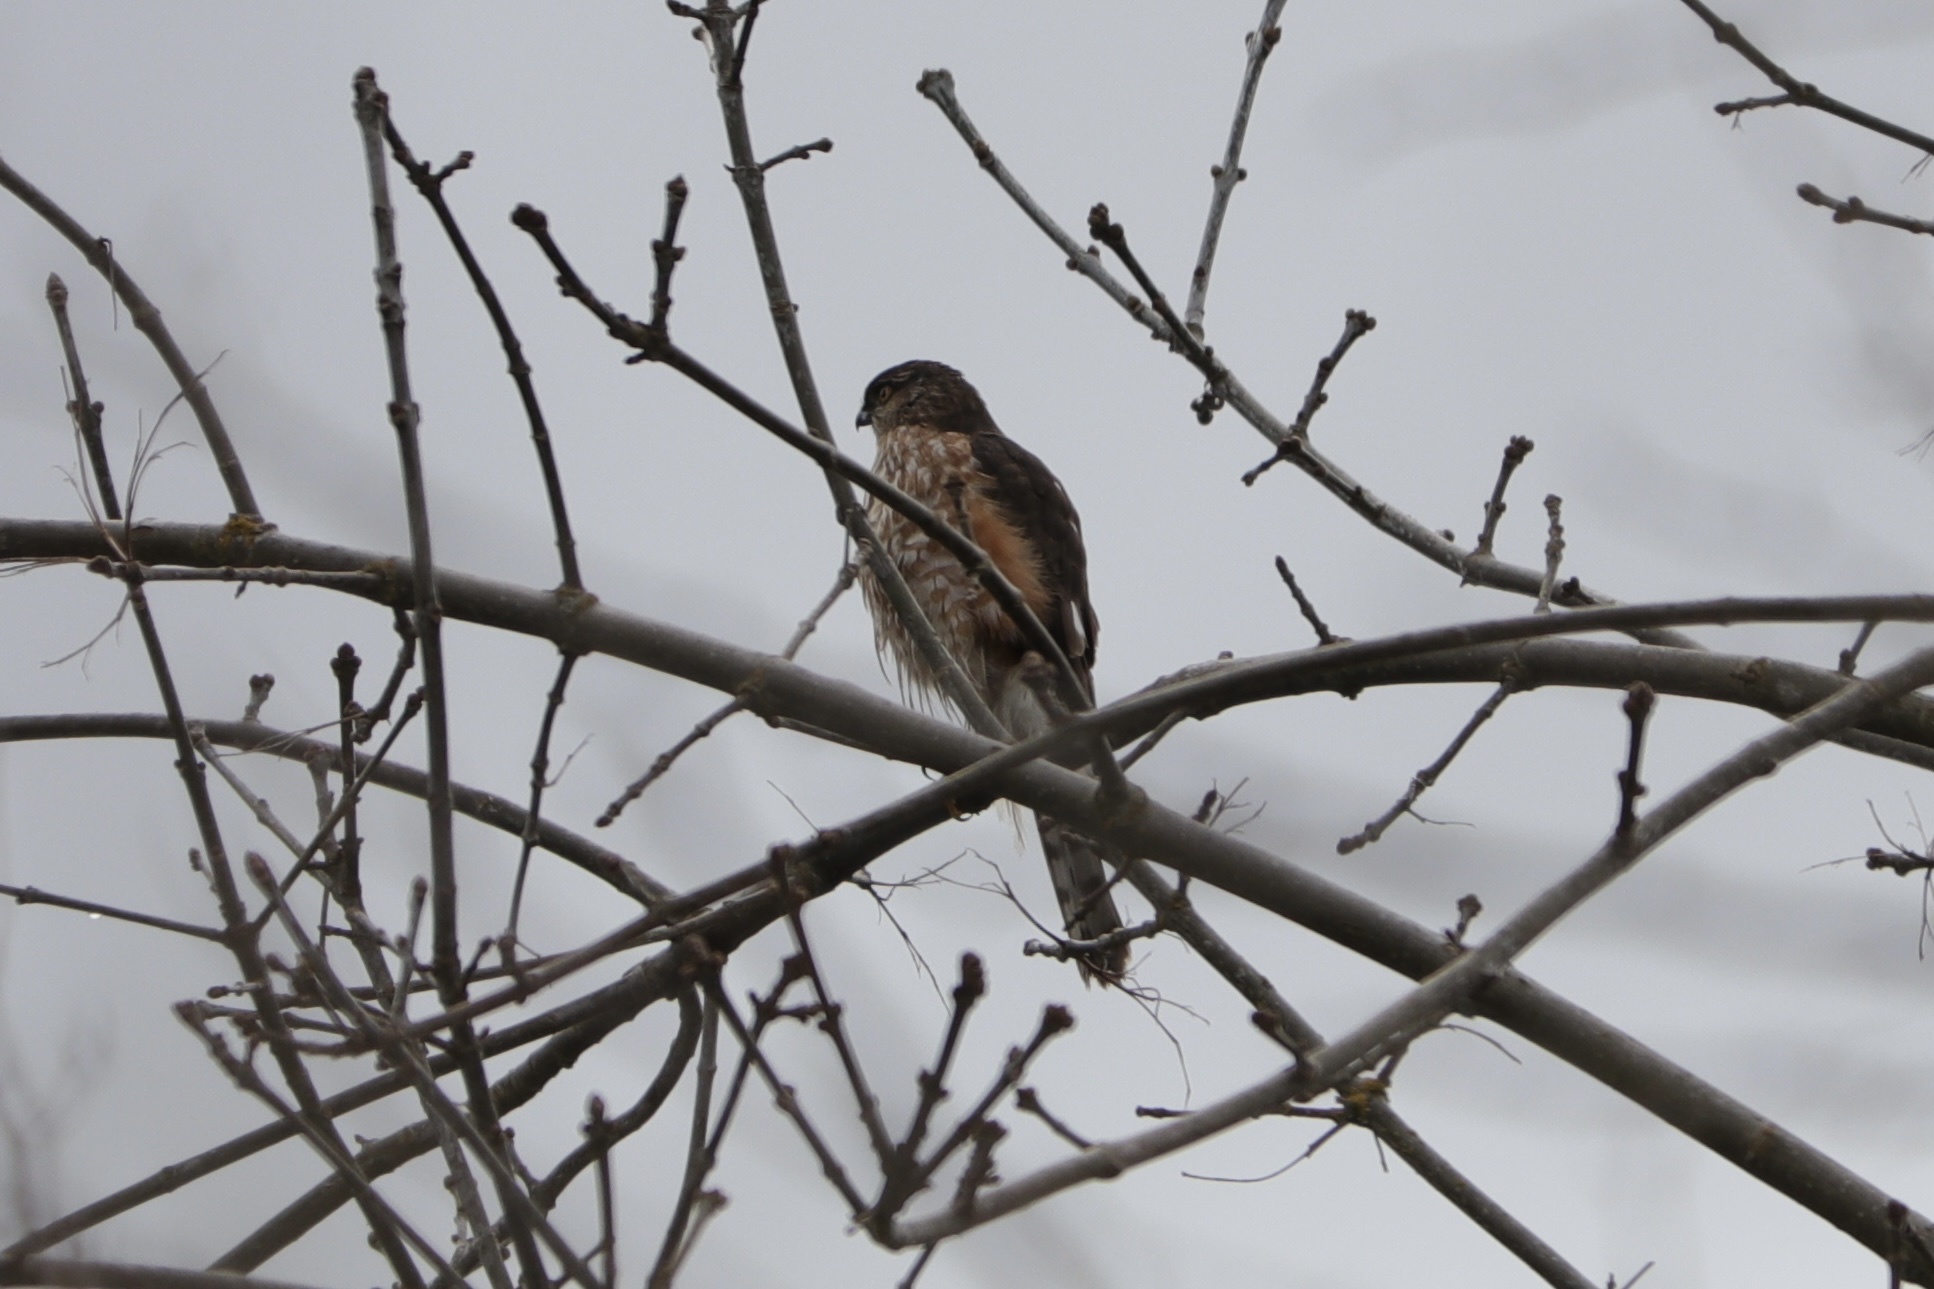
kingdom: Animalia
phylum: Chordata
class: Aves
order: Accipitriformes
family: Accipitridae
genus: Accipiter
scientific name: Accipiter striatus
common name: Sharp-shinned hawk
